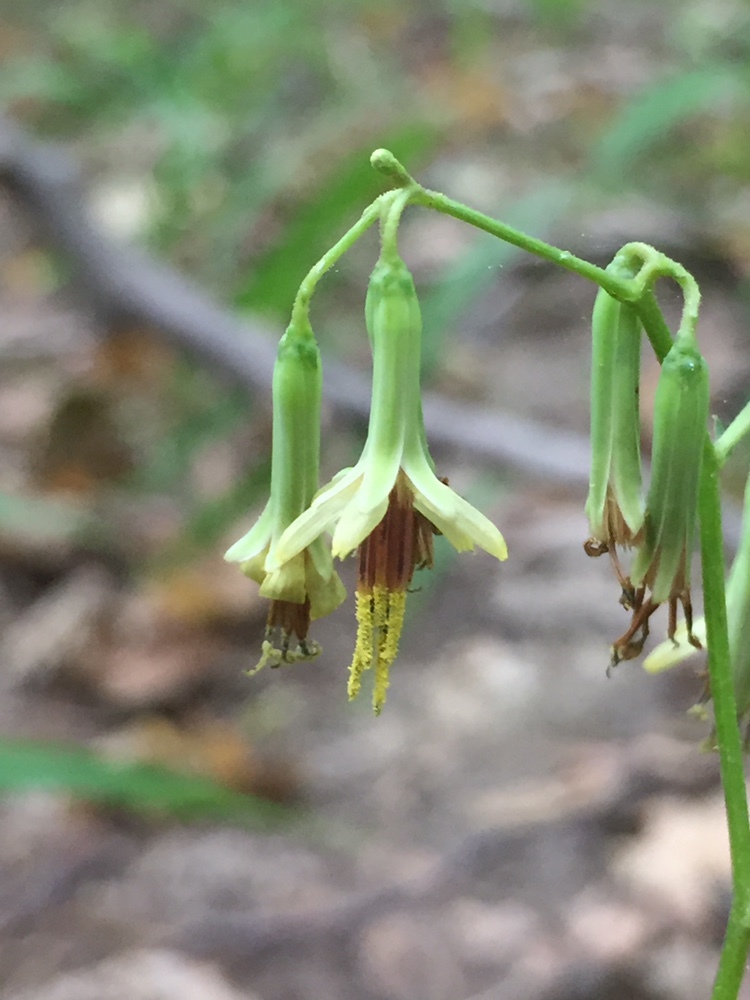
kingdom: Plantae
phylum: Tracheophyta
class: Magnoliopsida
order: Asterales
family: Asteraceae
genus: Nabalus
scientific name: Nabalus altissima
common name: Tall rattlesnakeroot
